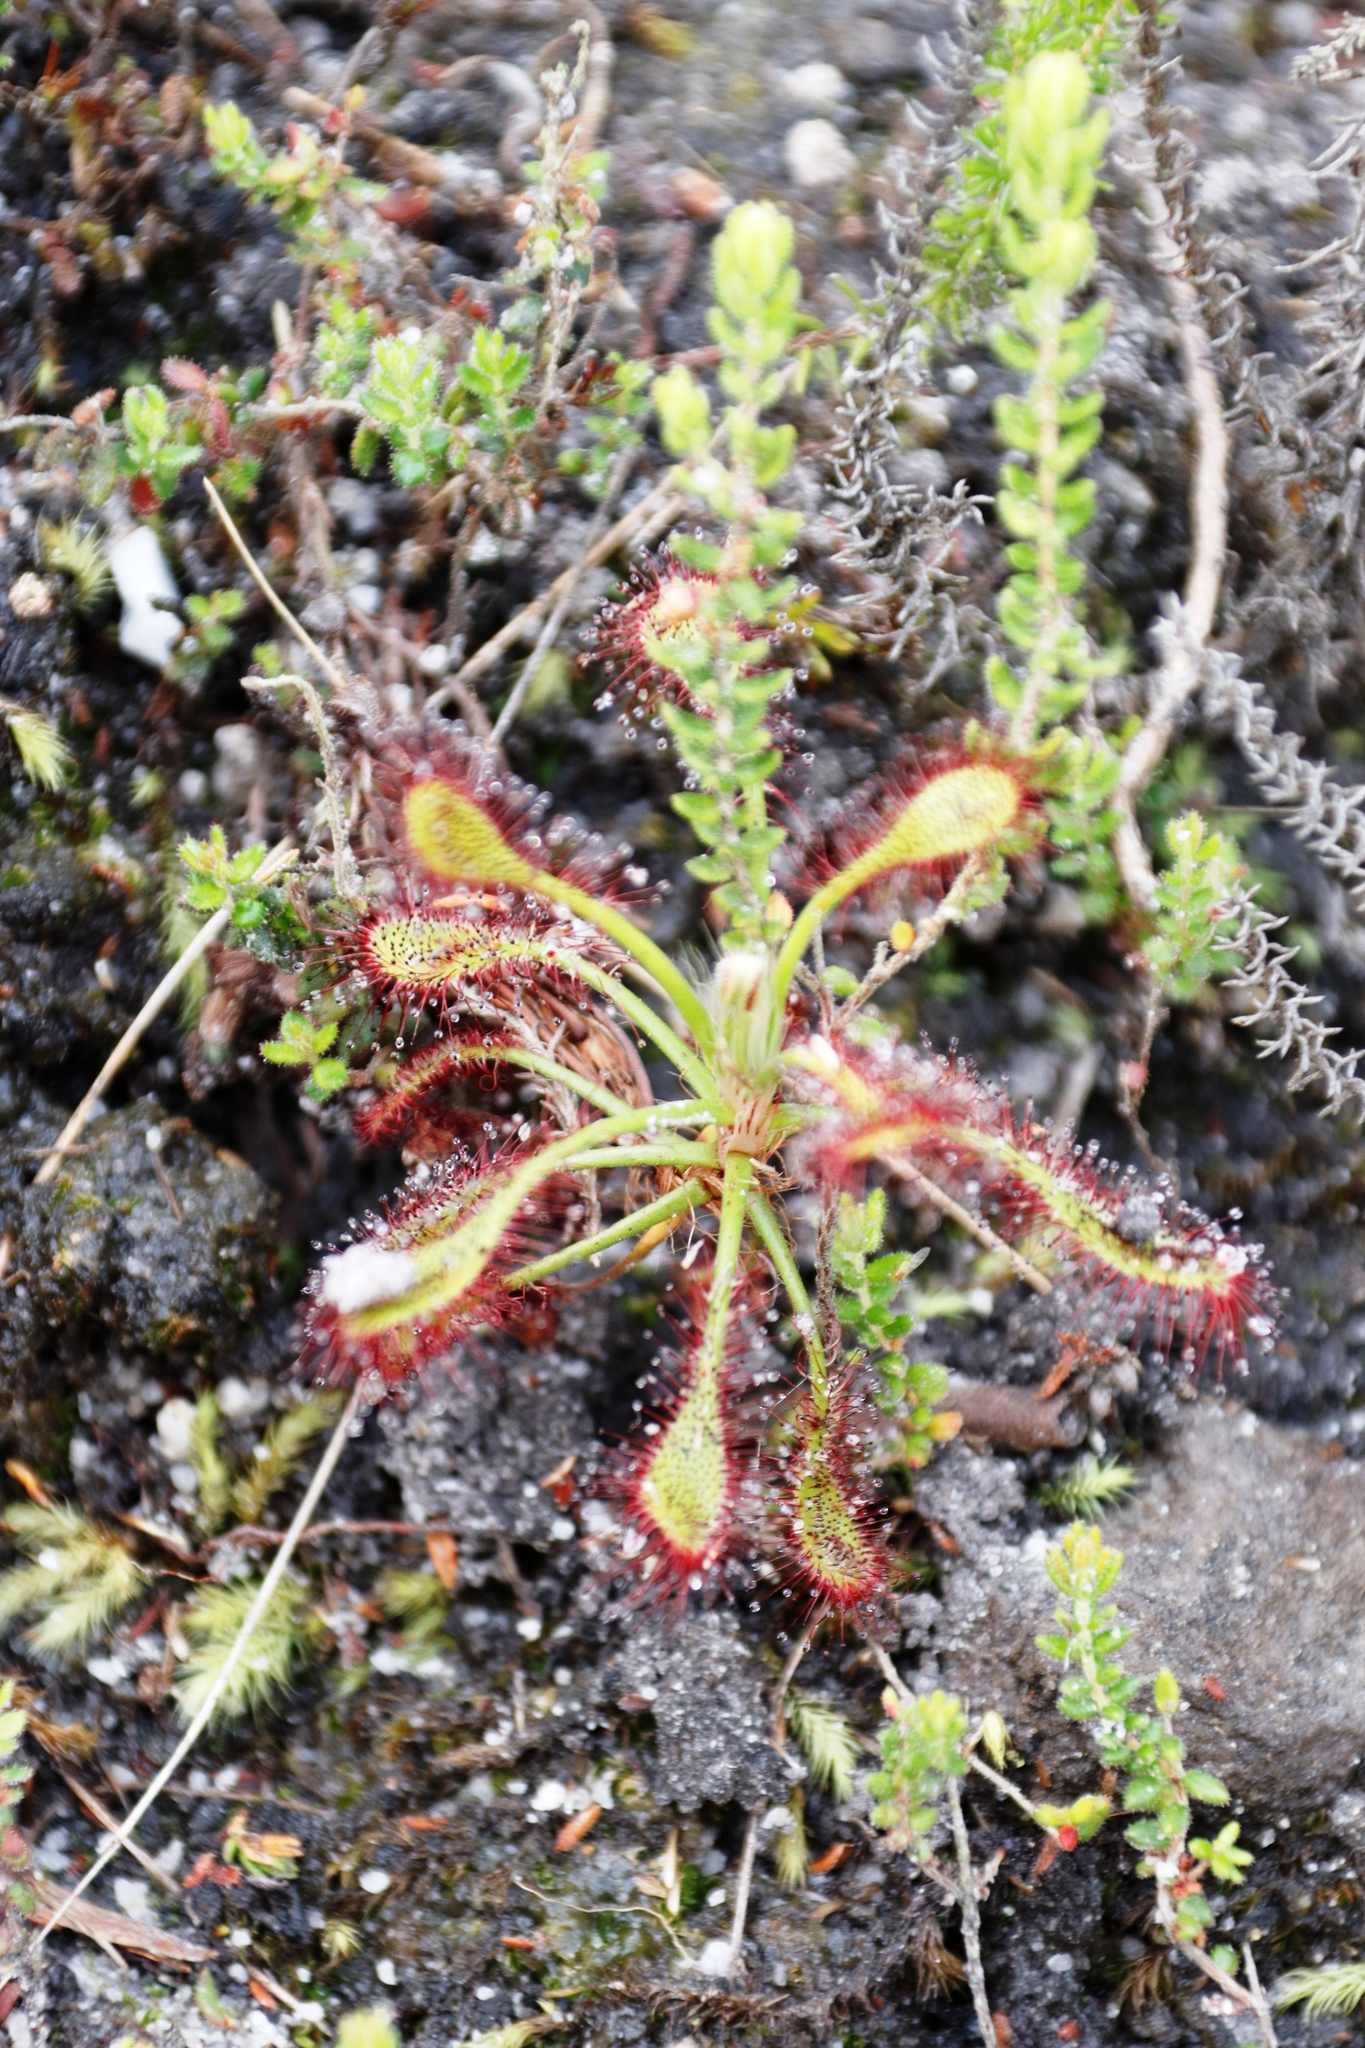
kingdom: Plantae
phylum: Tracheophyta
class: Magnoliopsida
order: Caryophyllales
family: Droseraceae
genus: Drosera
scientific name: Drosera glabripes
